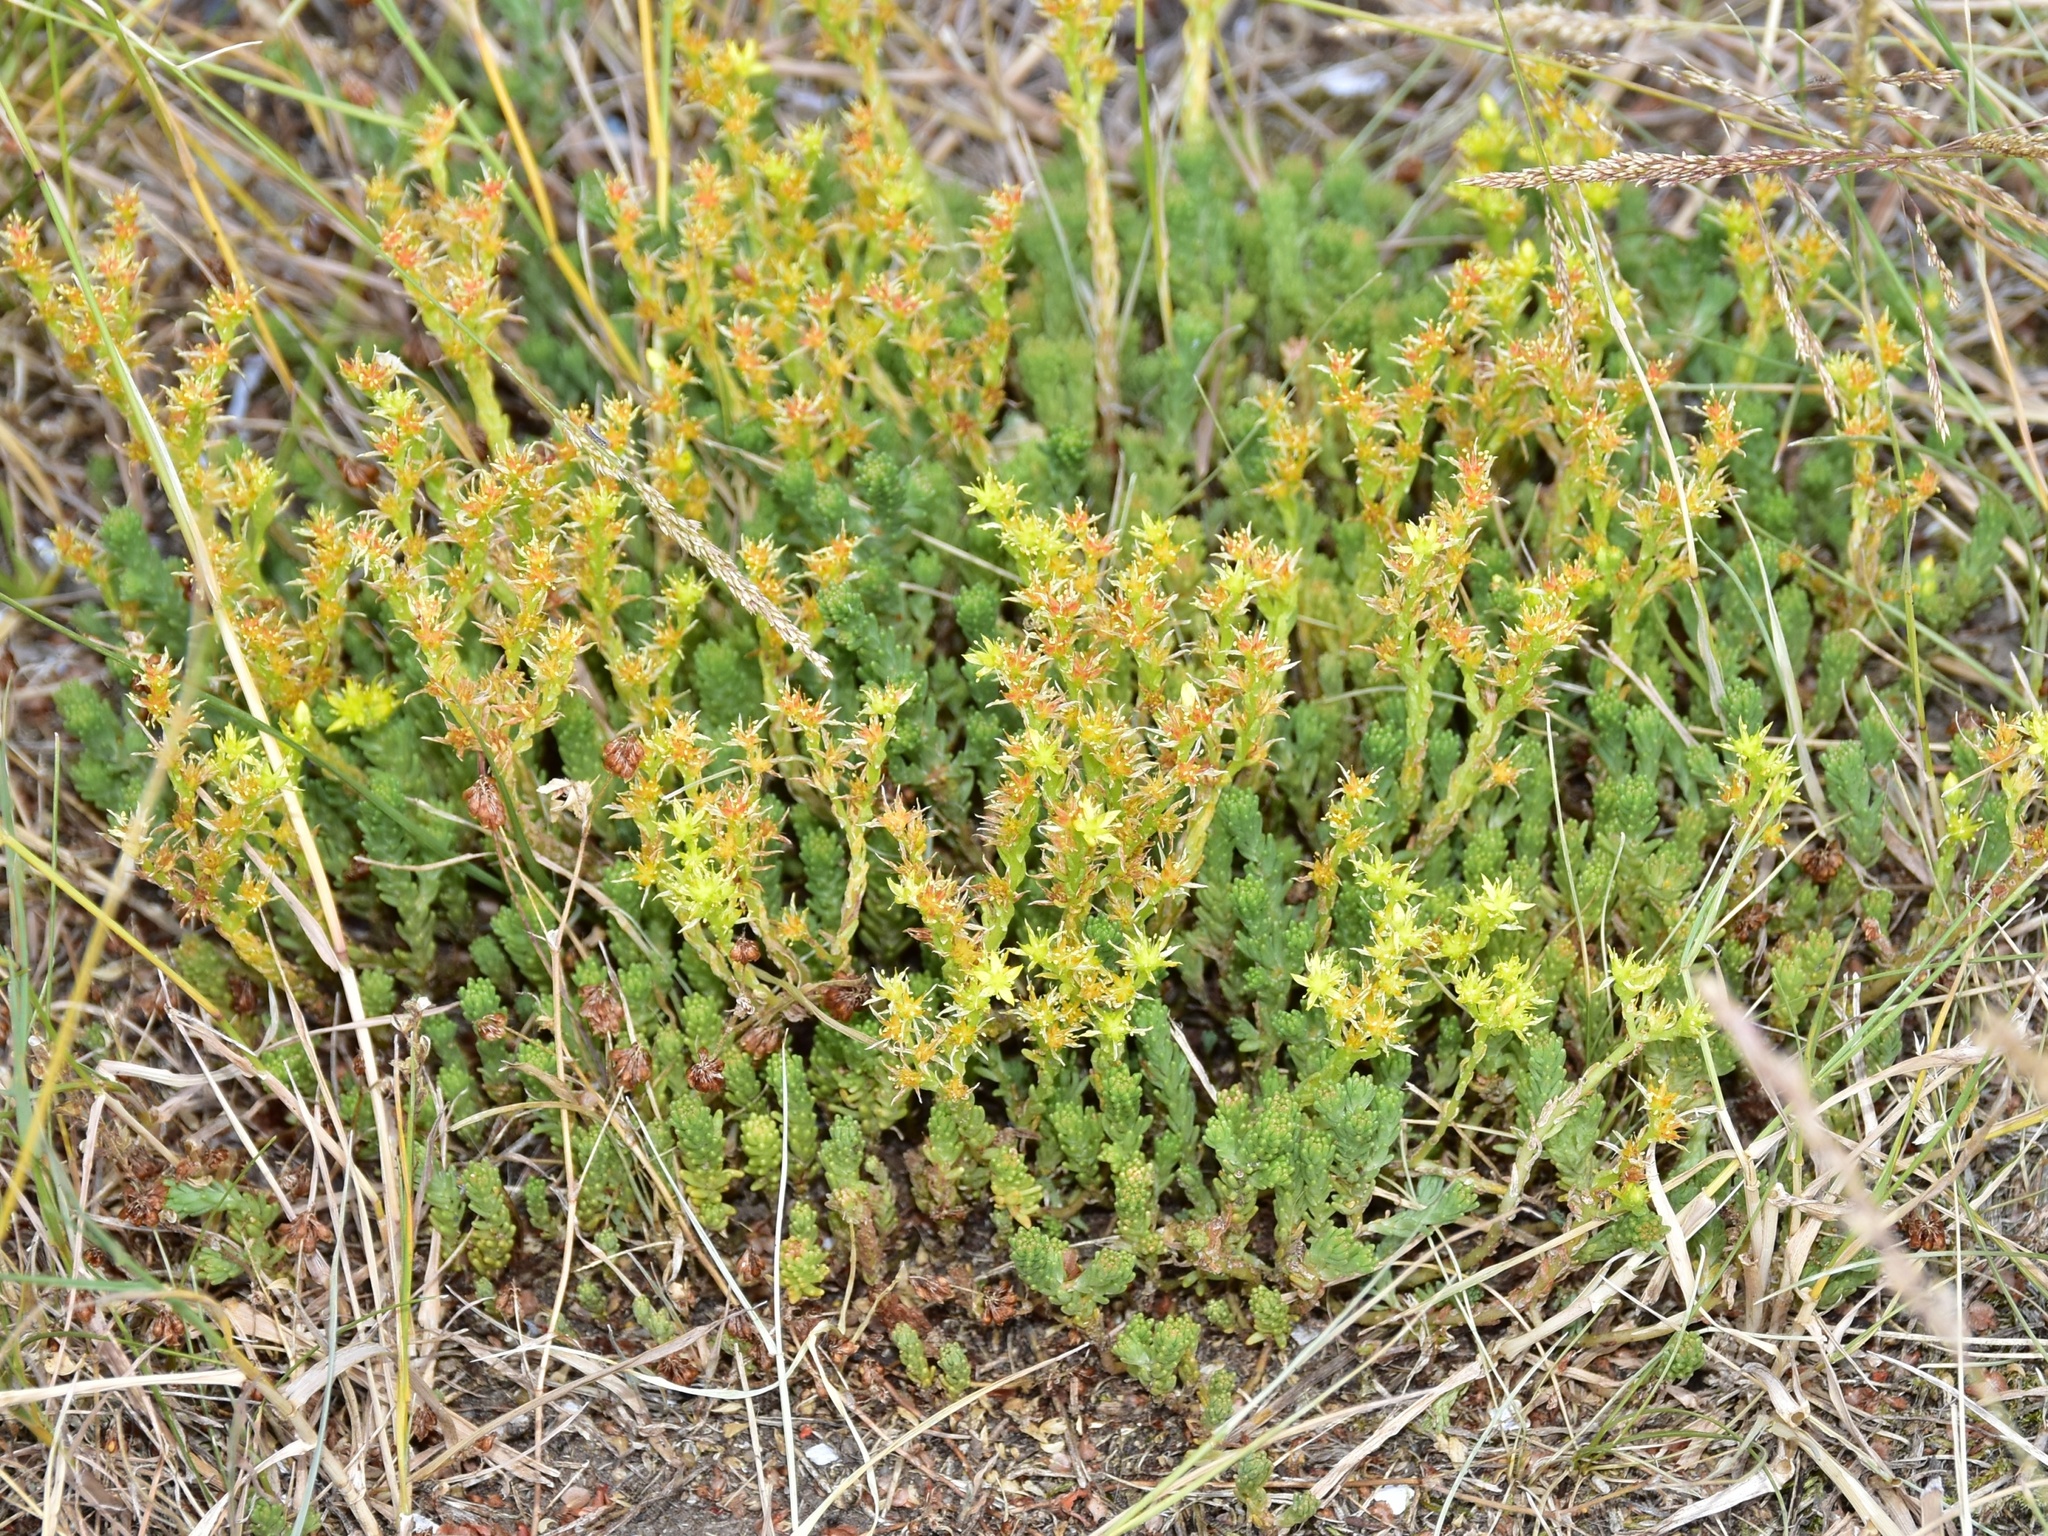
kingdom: Plantae
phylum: Tracheophyta
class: Magnoliopsida
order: Saxifragales
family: Crassulaceae
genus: Sedum
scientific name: Sedum sexangulare
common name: Tasteless stonecrop
